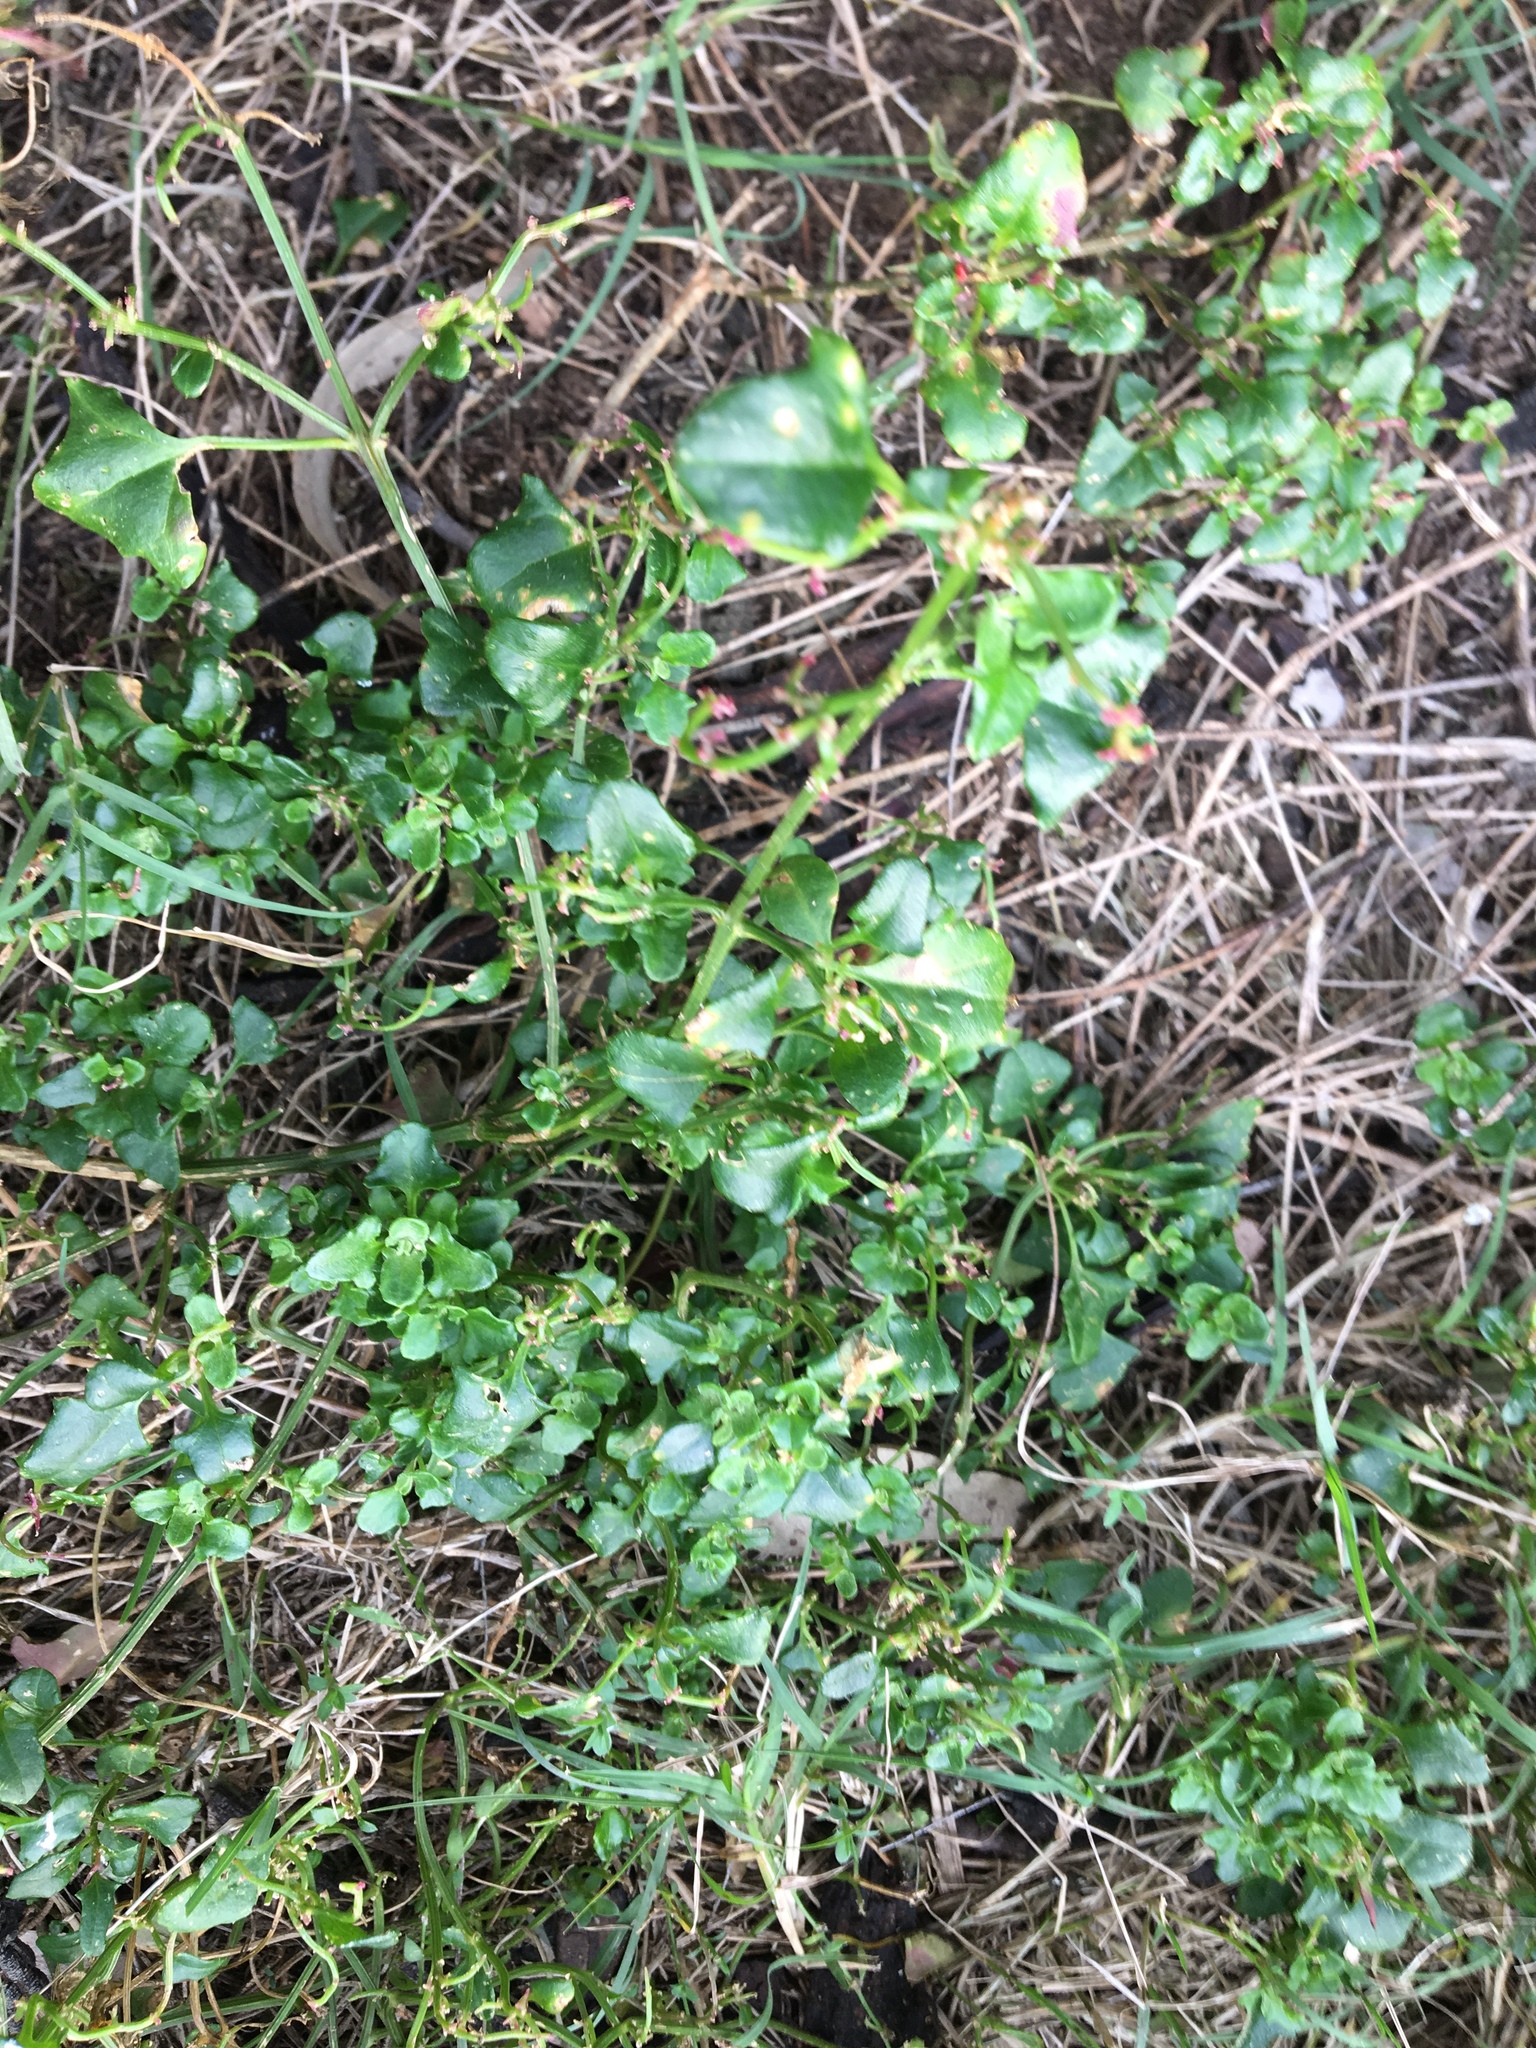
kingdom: Plantae
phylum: Tracheophyta
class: Magnoliopsida
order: Caryophyllales
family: Amaranthaceae
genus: Chenopodium
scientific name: Chenopodium robertianum
